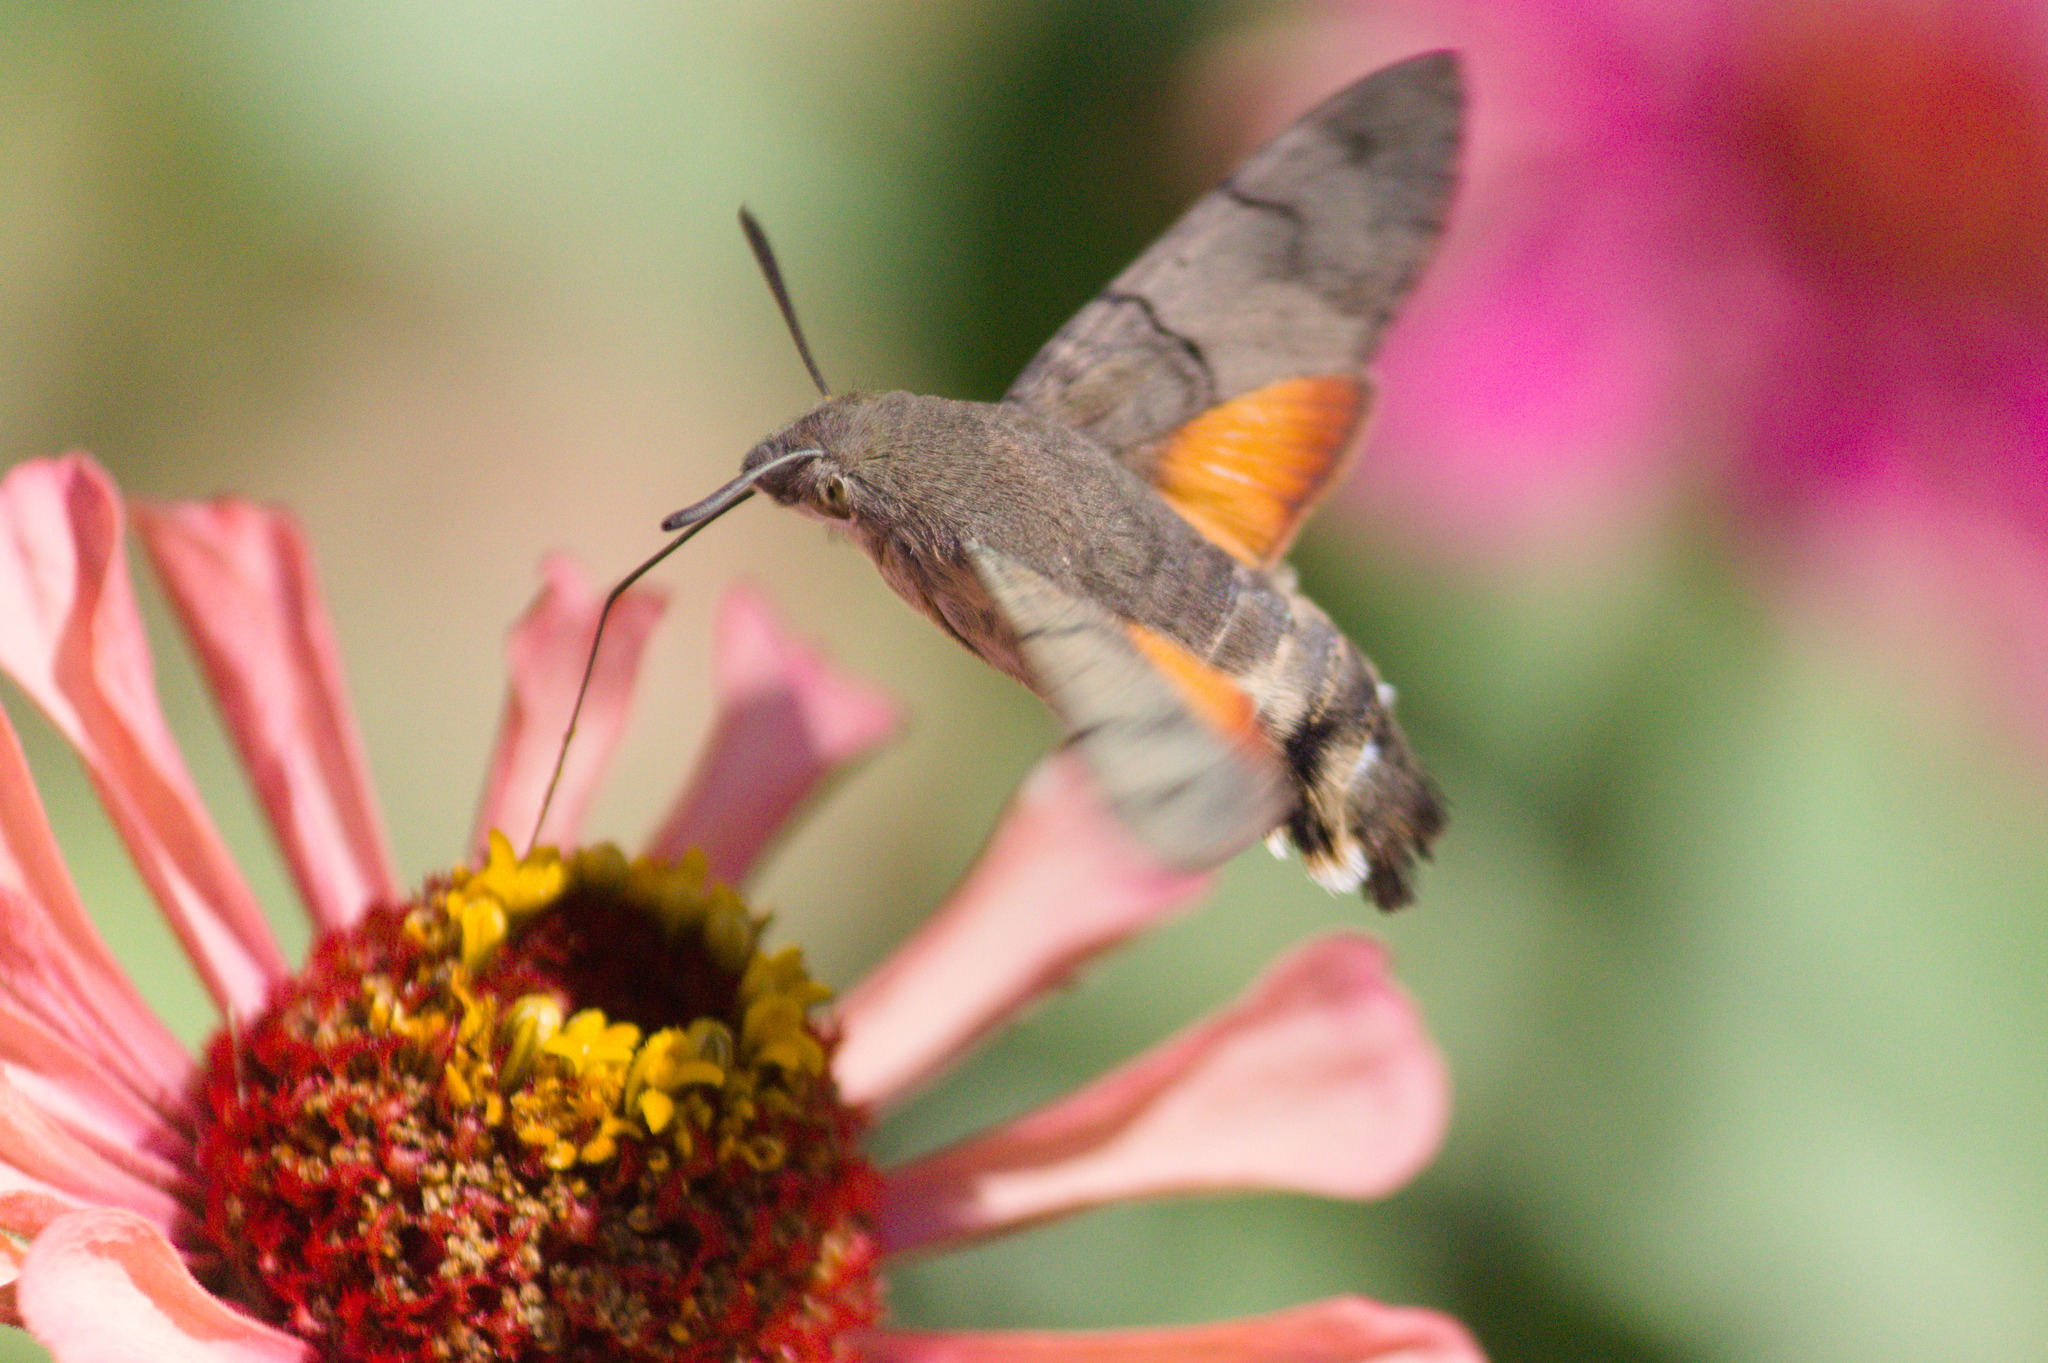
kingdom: Animalia
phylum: Arthropoda
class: Insecta
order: Lepidoptera
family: Sphingidae
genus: Macroglossum
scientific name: Macroglossum stellatarum
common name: Humming-bird hawk-moth
